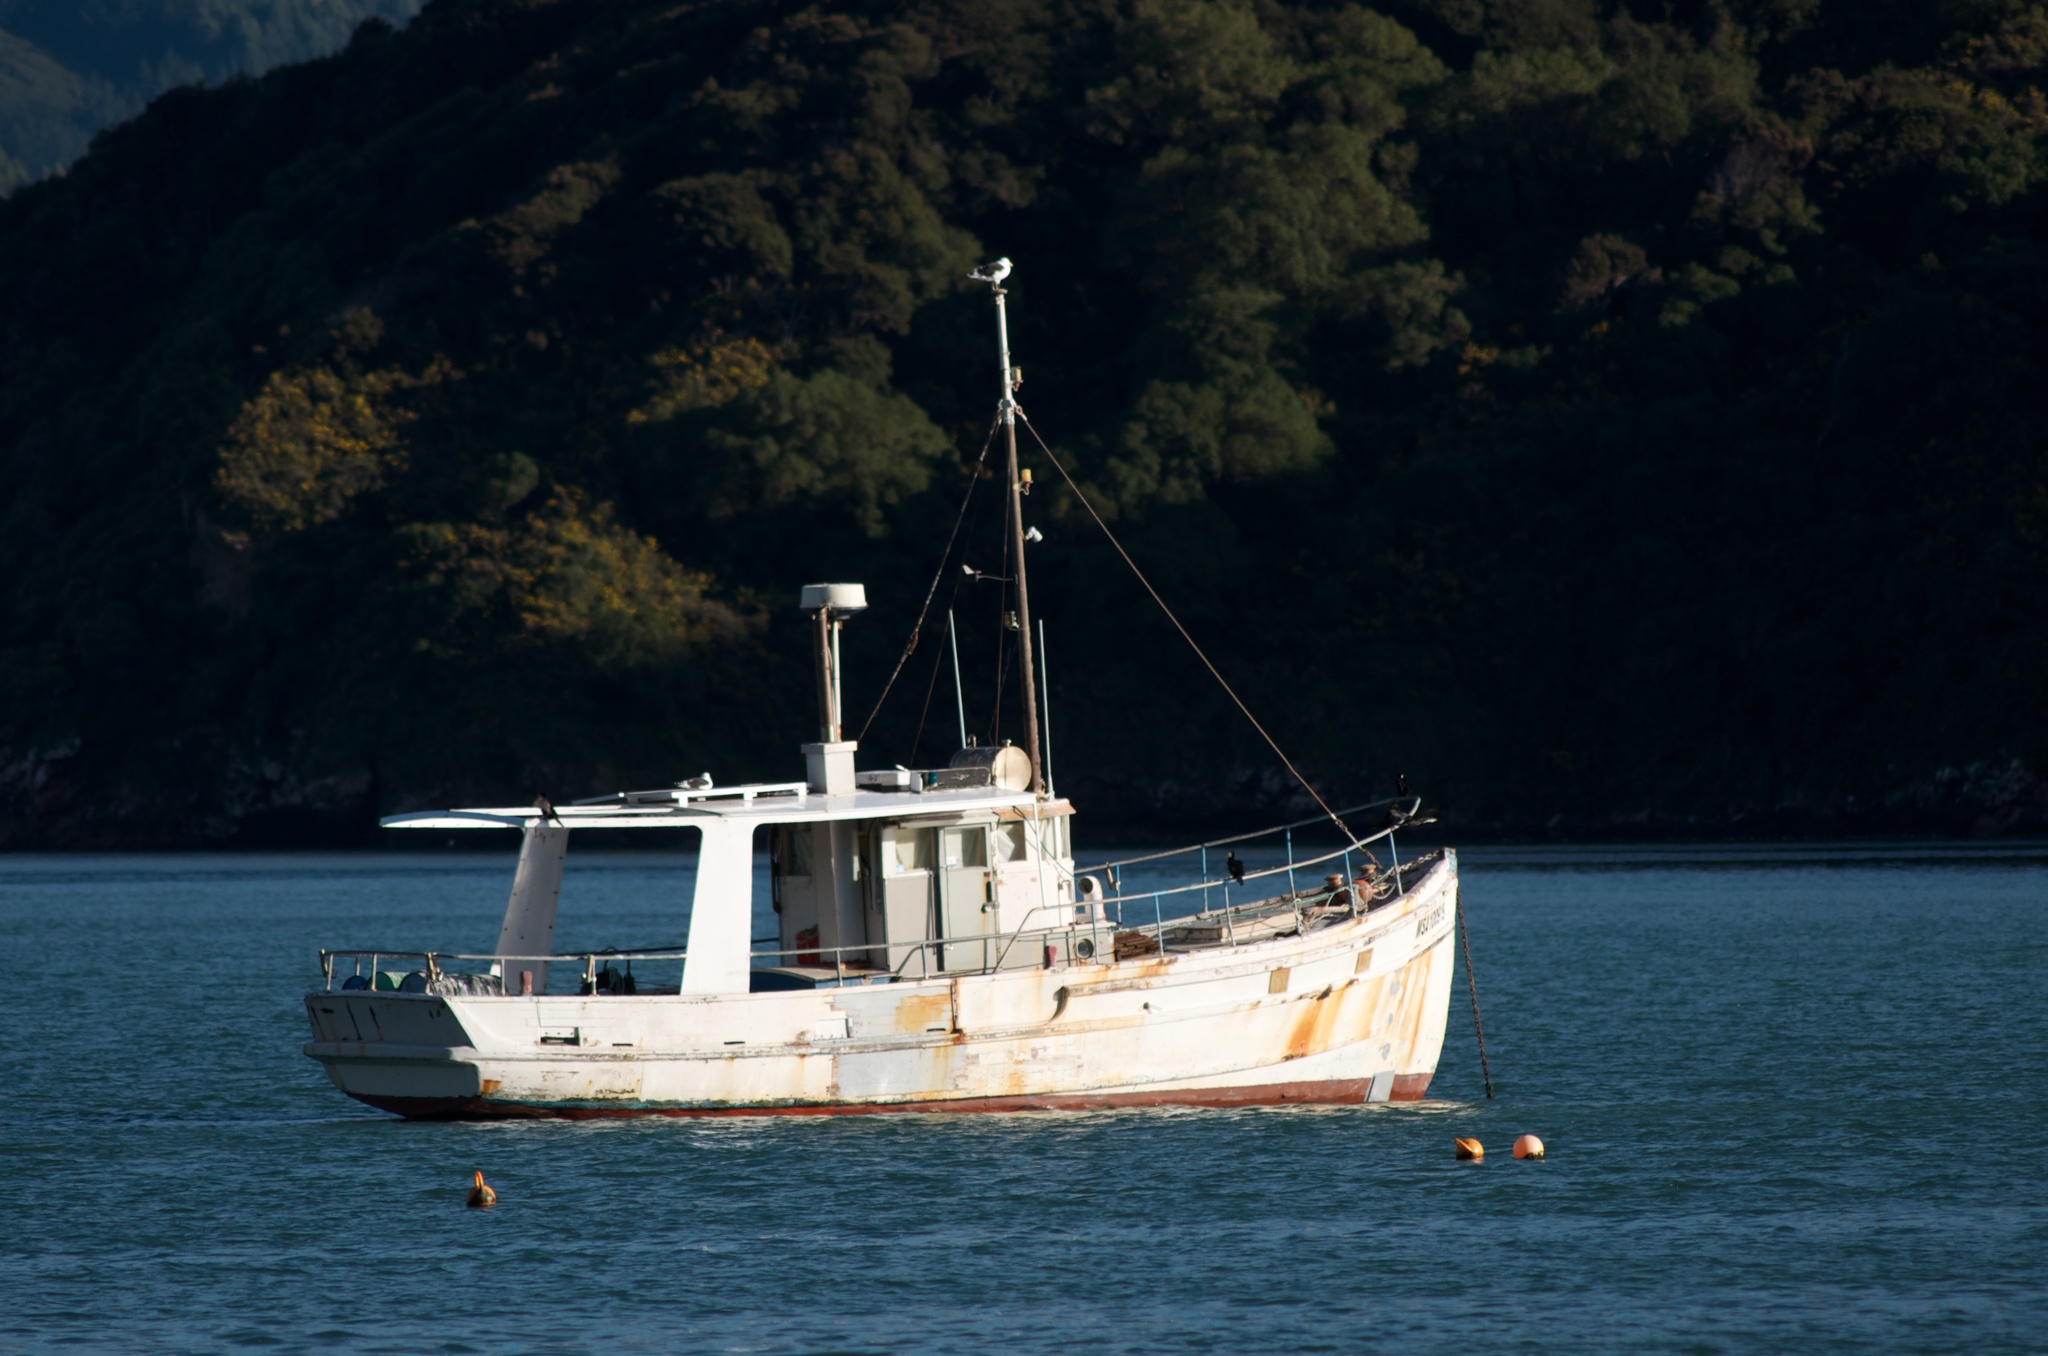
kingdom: Animalia
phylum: Chordata
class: Aves
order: Suliformes
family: Phalacrocoracidae
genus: Microcarbo
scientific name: Microcarbo melanoleucos
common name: Little pied cormorant
